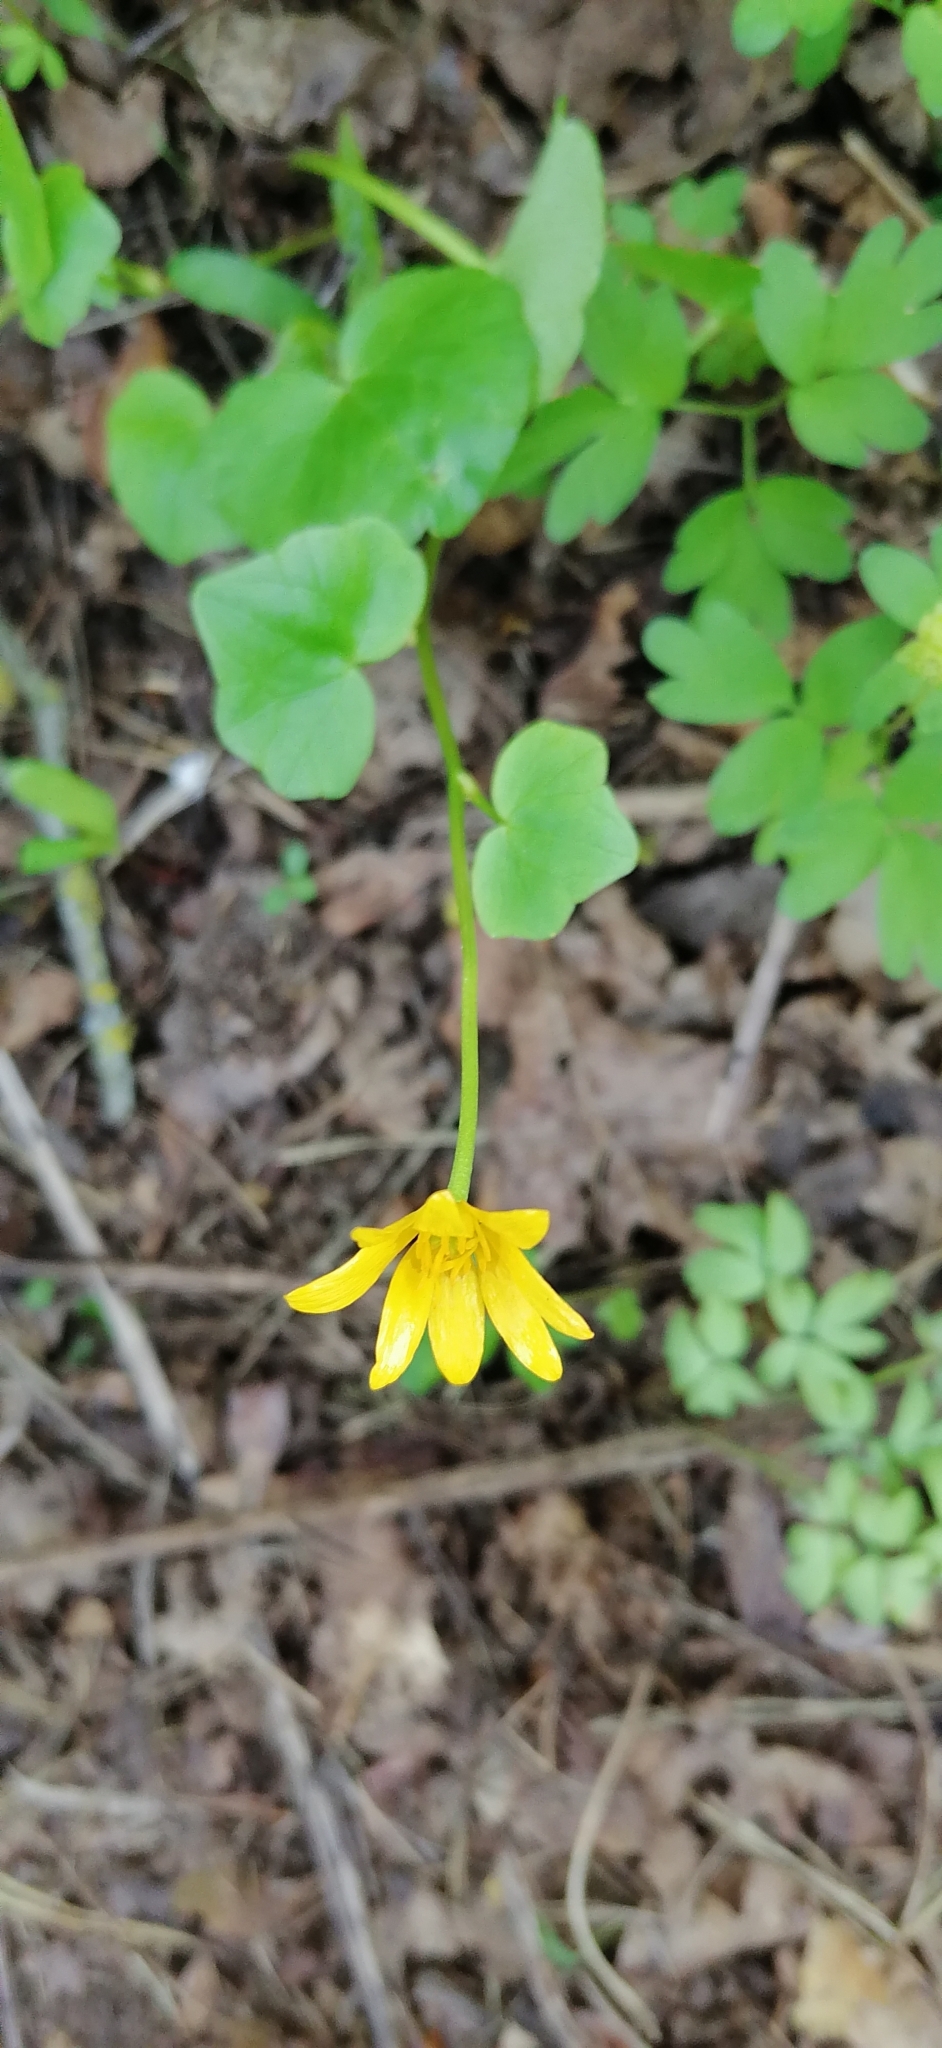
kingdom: Plantae
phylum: Tracheophyta
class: Magnoliopsida
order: Ranunculales
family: Ranunculaceae
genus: Ficaria
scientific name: Ficaria verna
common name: Lesser celandine
